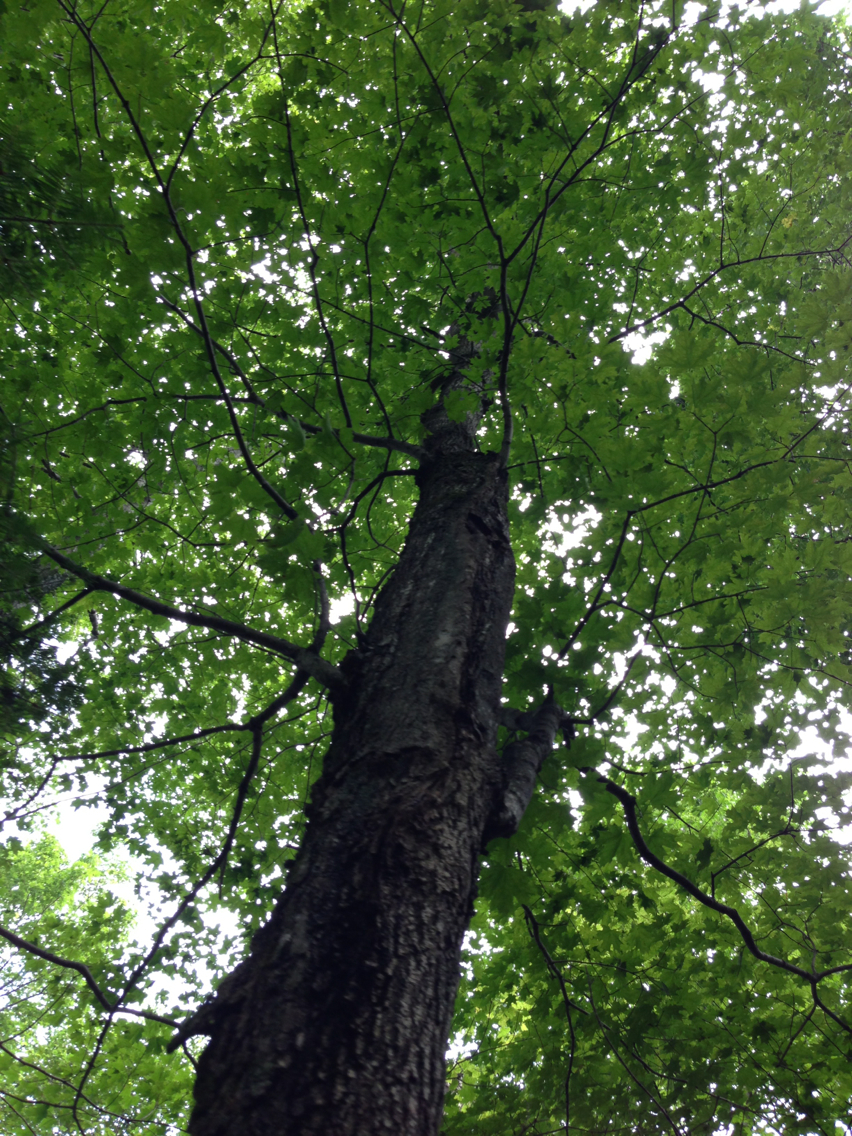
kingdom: Plantae
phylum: Tracheophyta
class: Magnoliopsida
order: Sapindales
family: Sapindaceae
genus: Acer
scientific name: Acer saccharum
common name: Sugar maple
